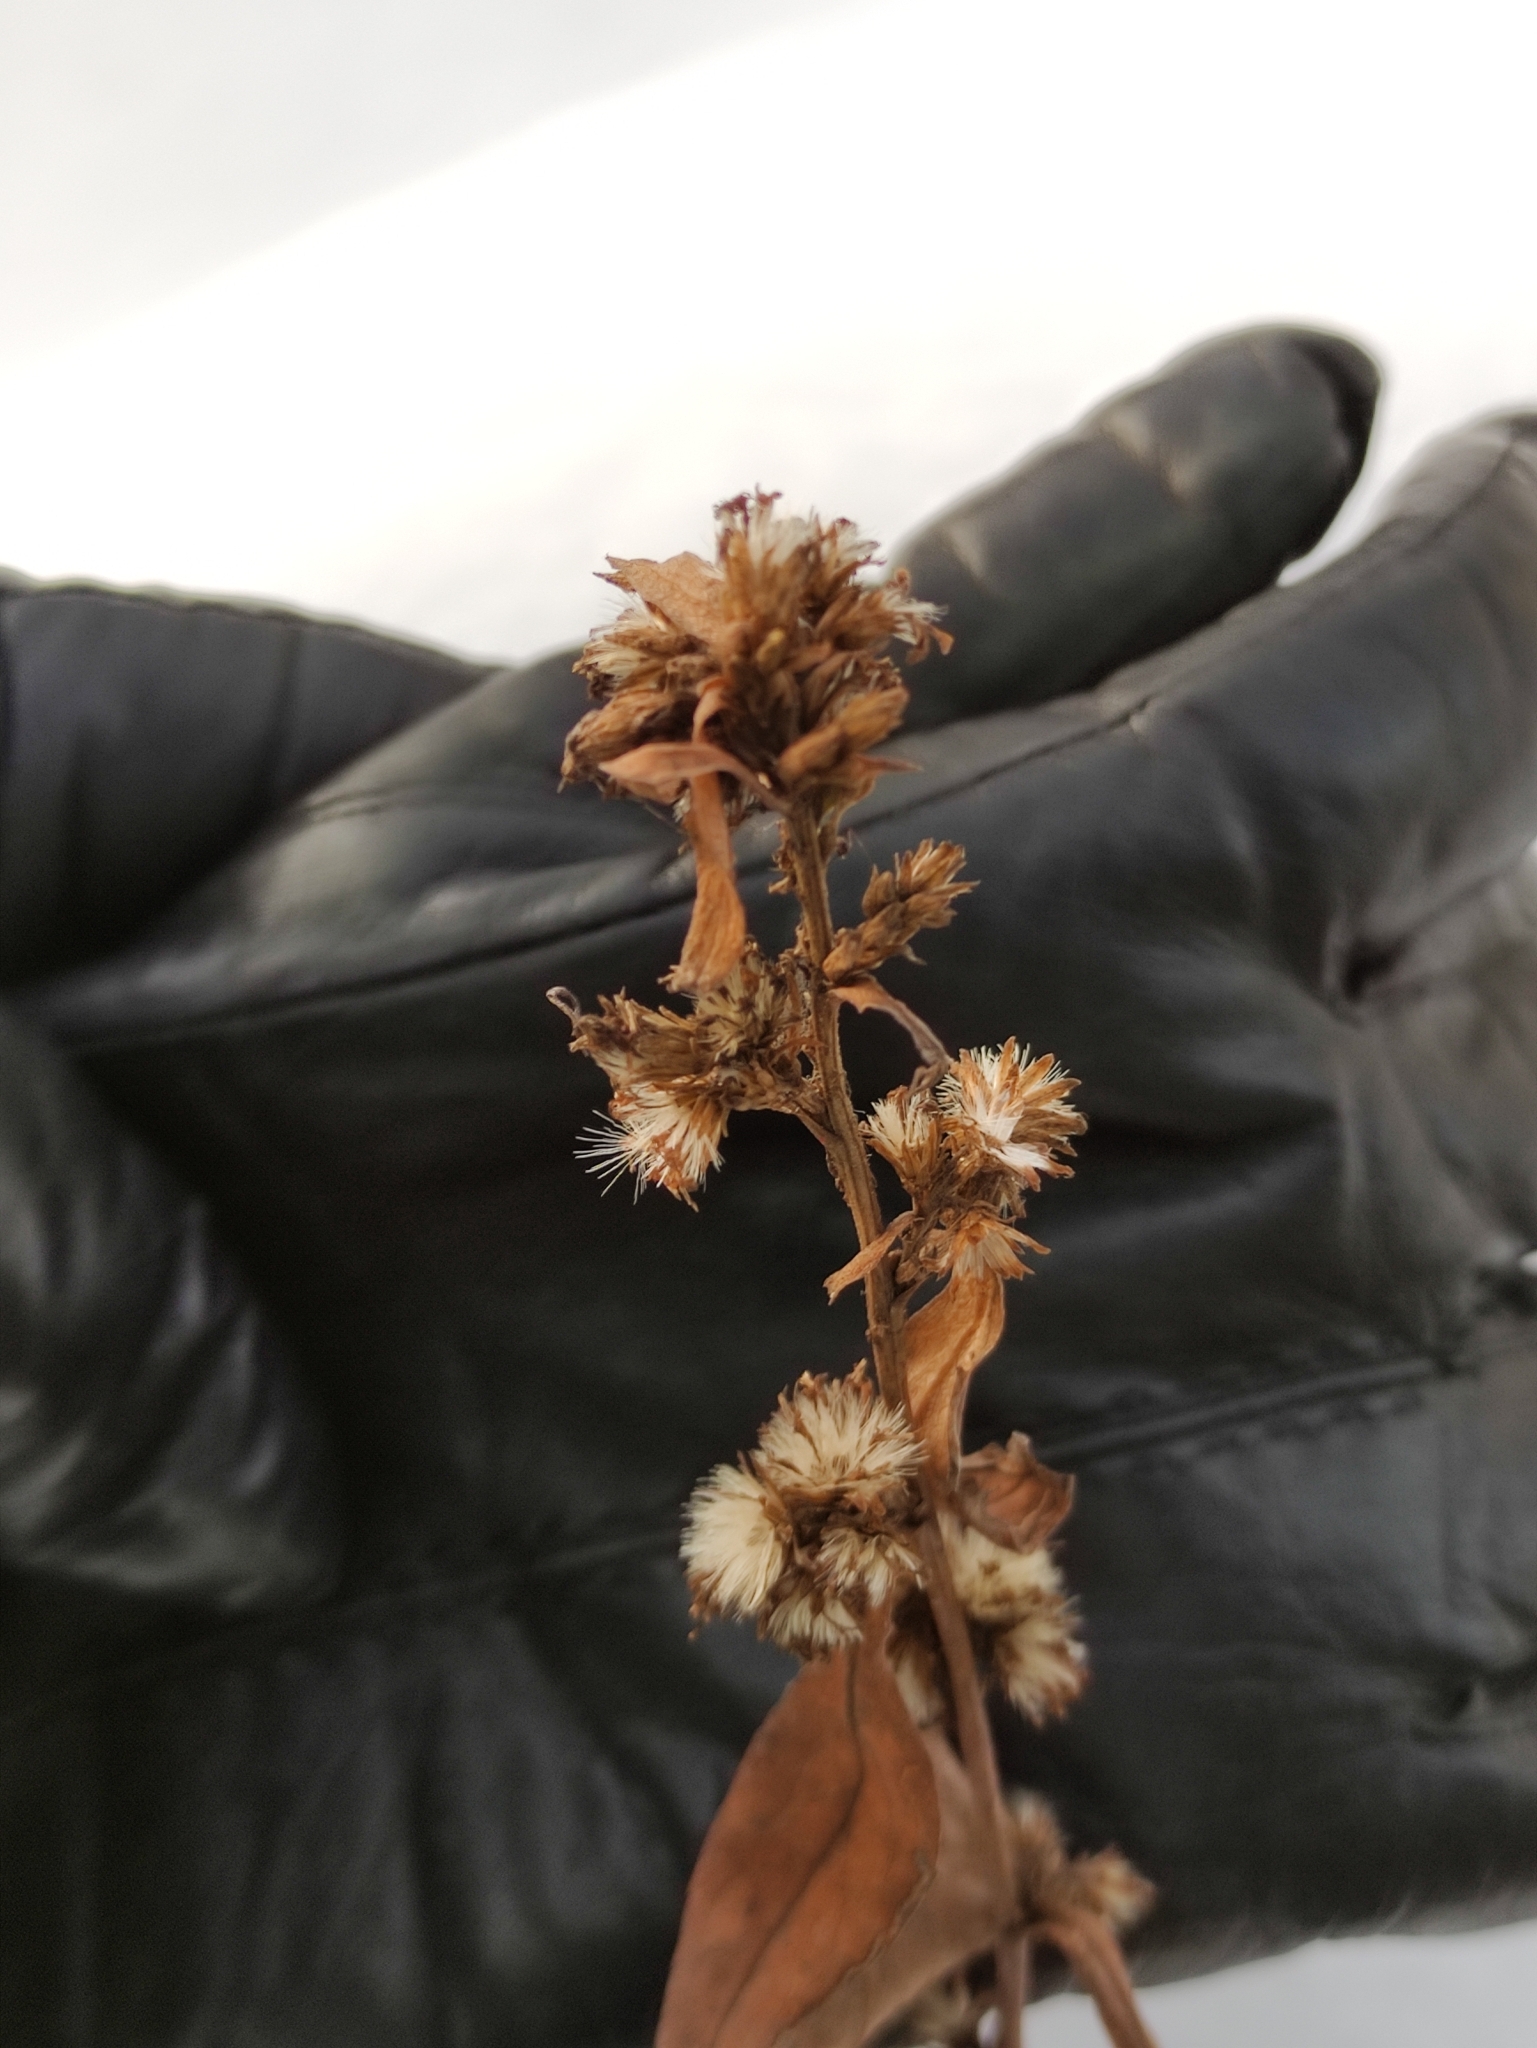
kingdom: Plantae
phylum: Tracheophyta
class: Magnoliopsida
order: Asterales
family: Asteraceae
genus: Solidago
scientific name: Solidago virgaurea
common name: Goldenrod
